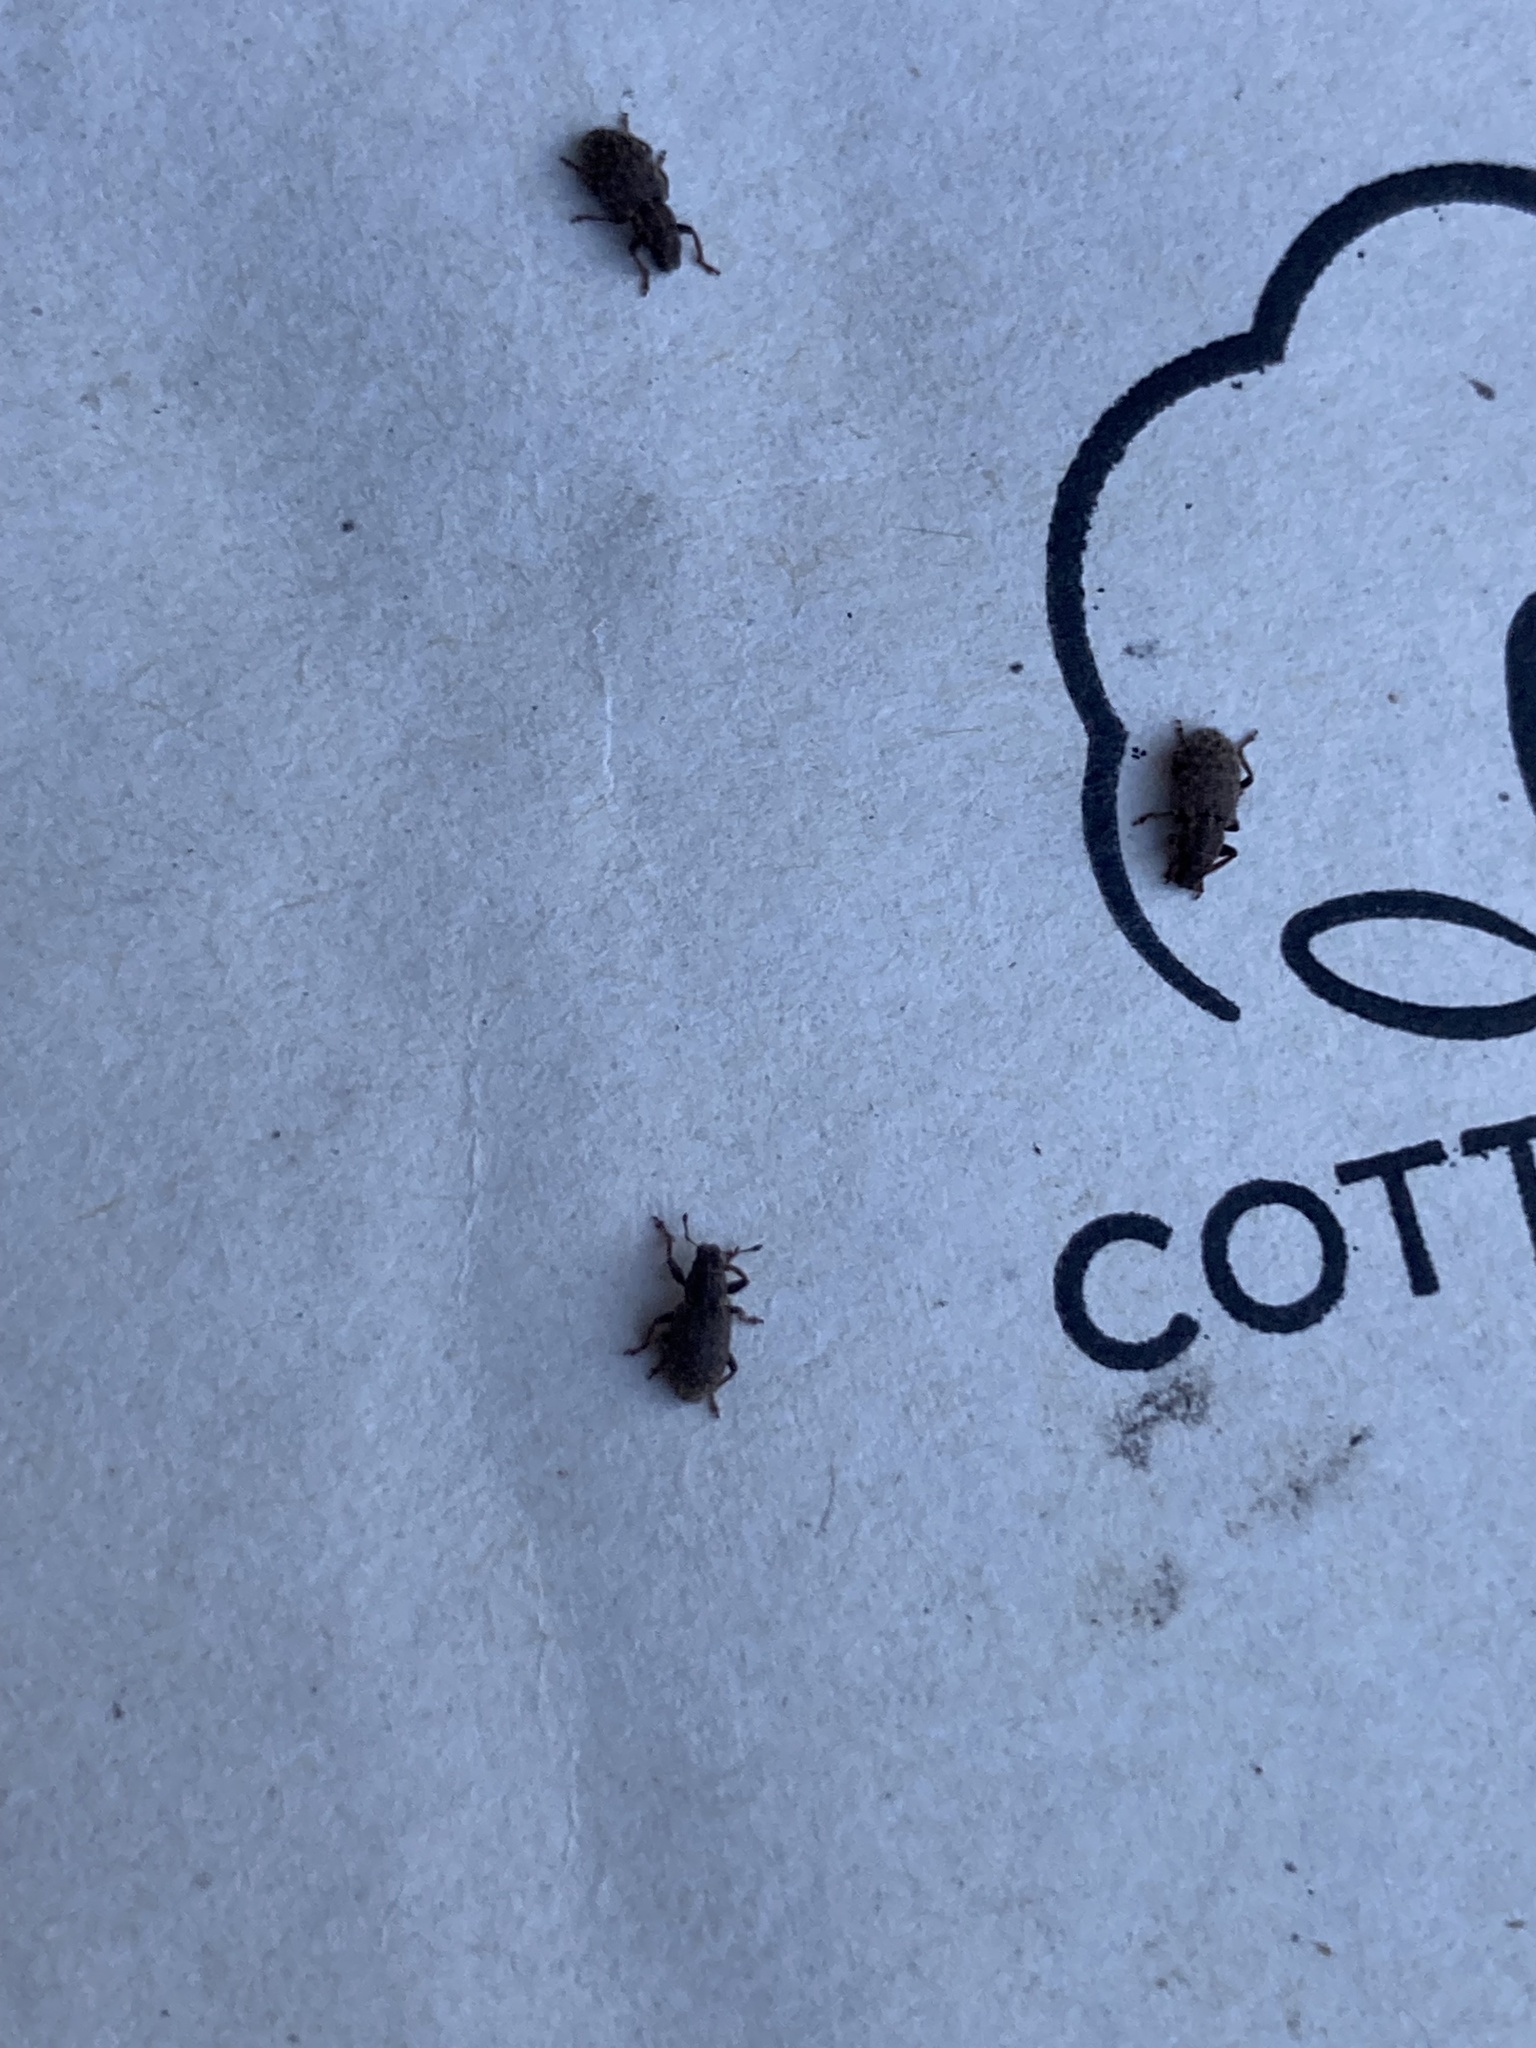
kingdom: Animalia
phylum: Arthropoda
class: Insecta
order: Coleoptera
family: Curculionidae
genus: Sitona
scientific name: Sitona hispidulus
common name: Clover weevil
